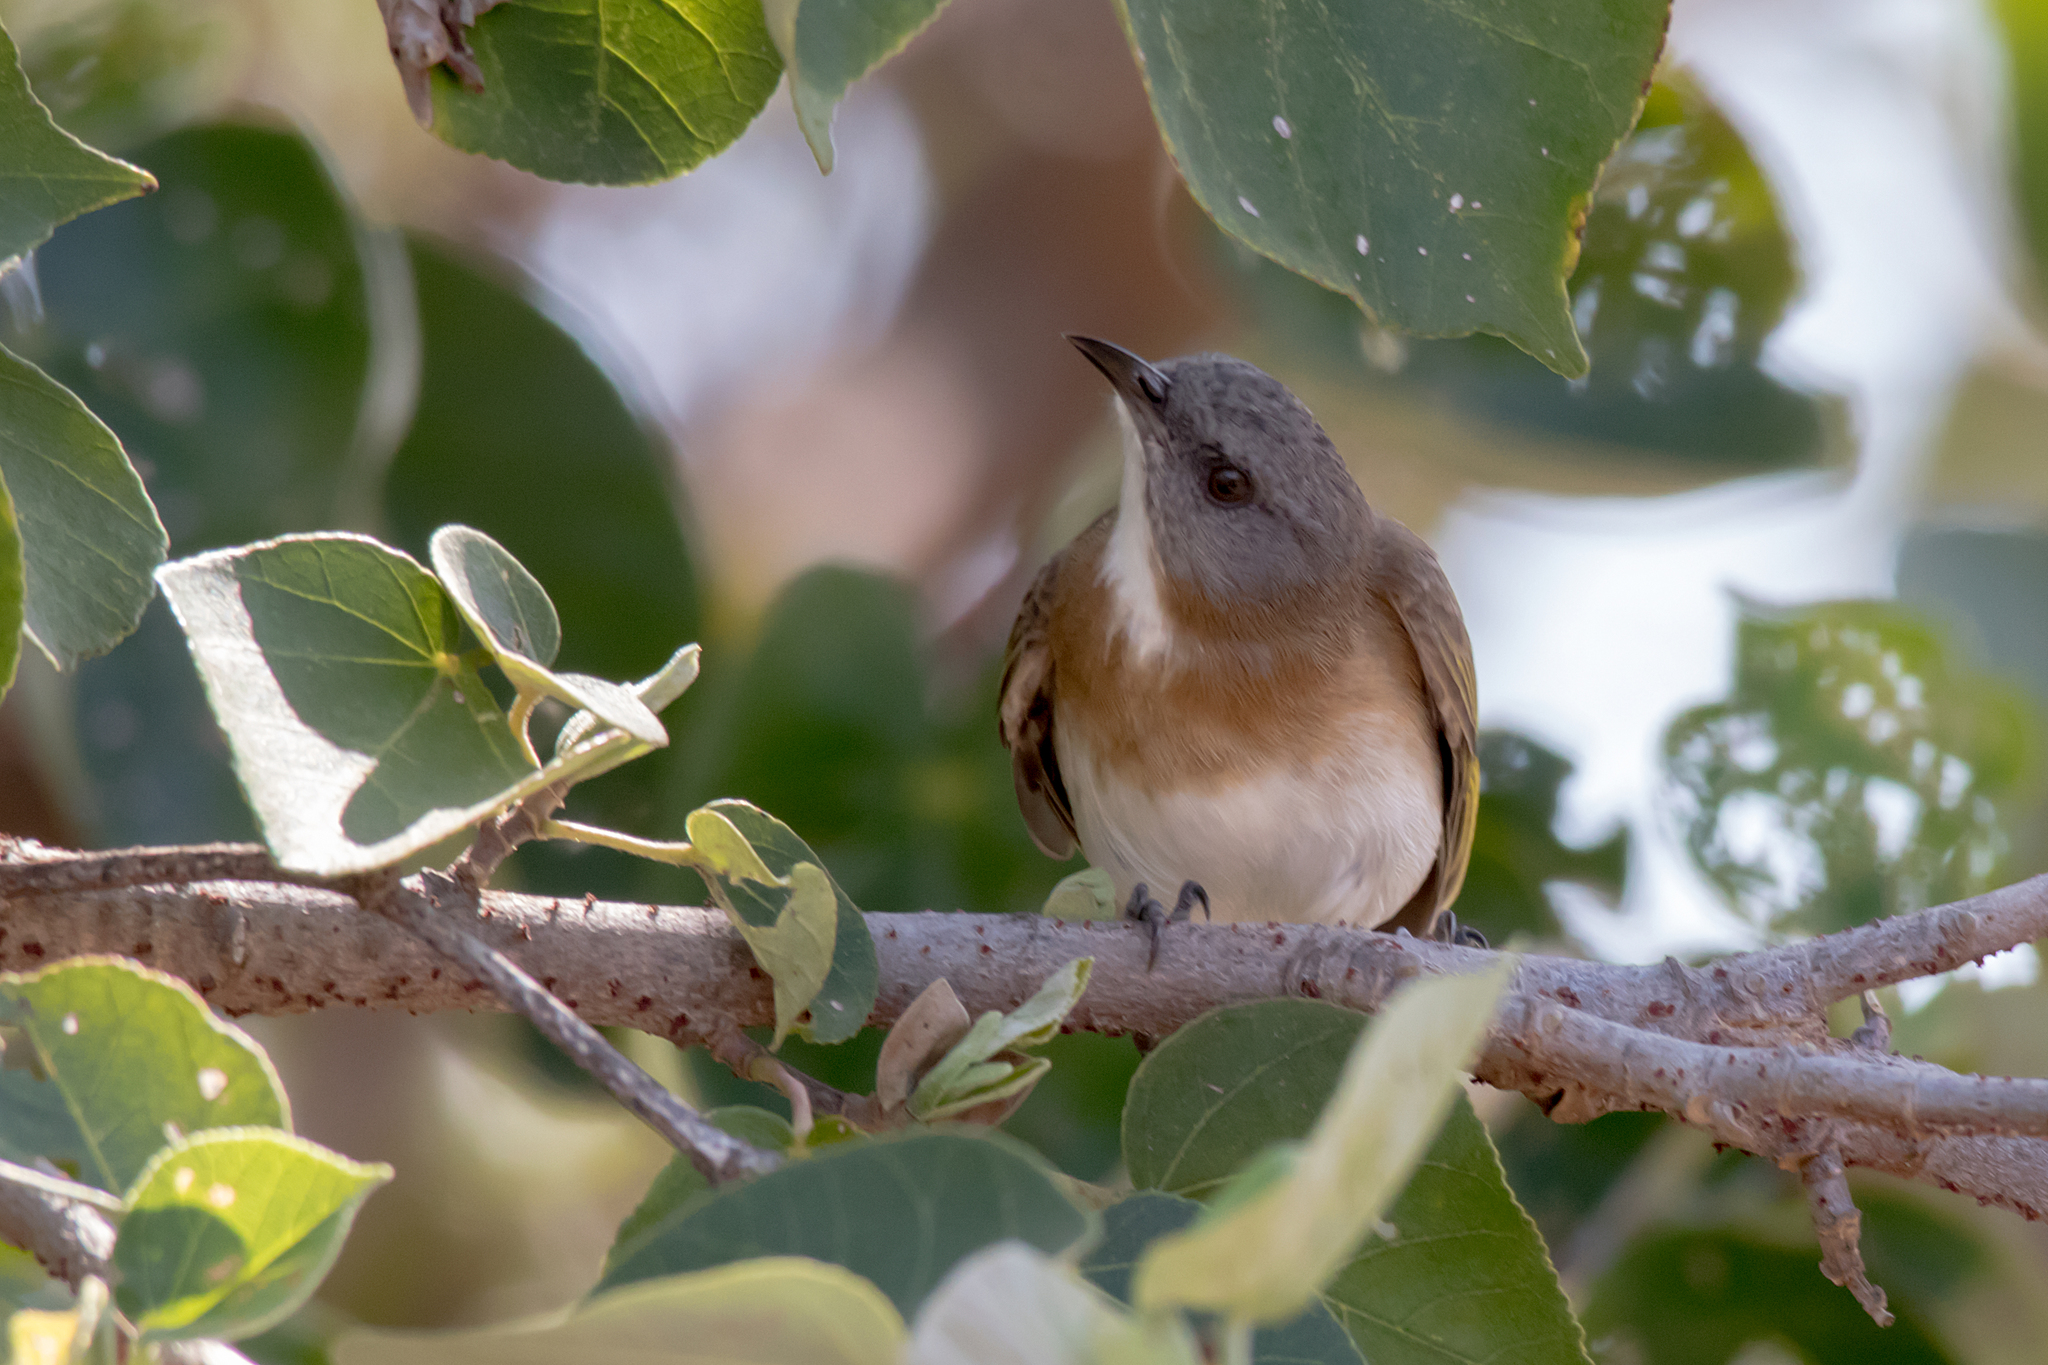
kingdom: Animalia
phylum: Chordata
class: Aves
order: Passeriformes
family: Meliphagidae
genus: Conopophila
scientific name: Conopophila albogularis
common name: Rufous-banded honeyeater
